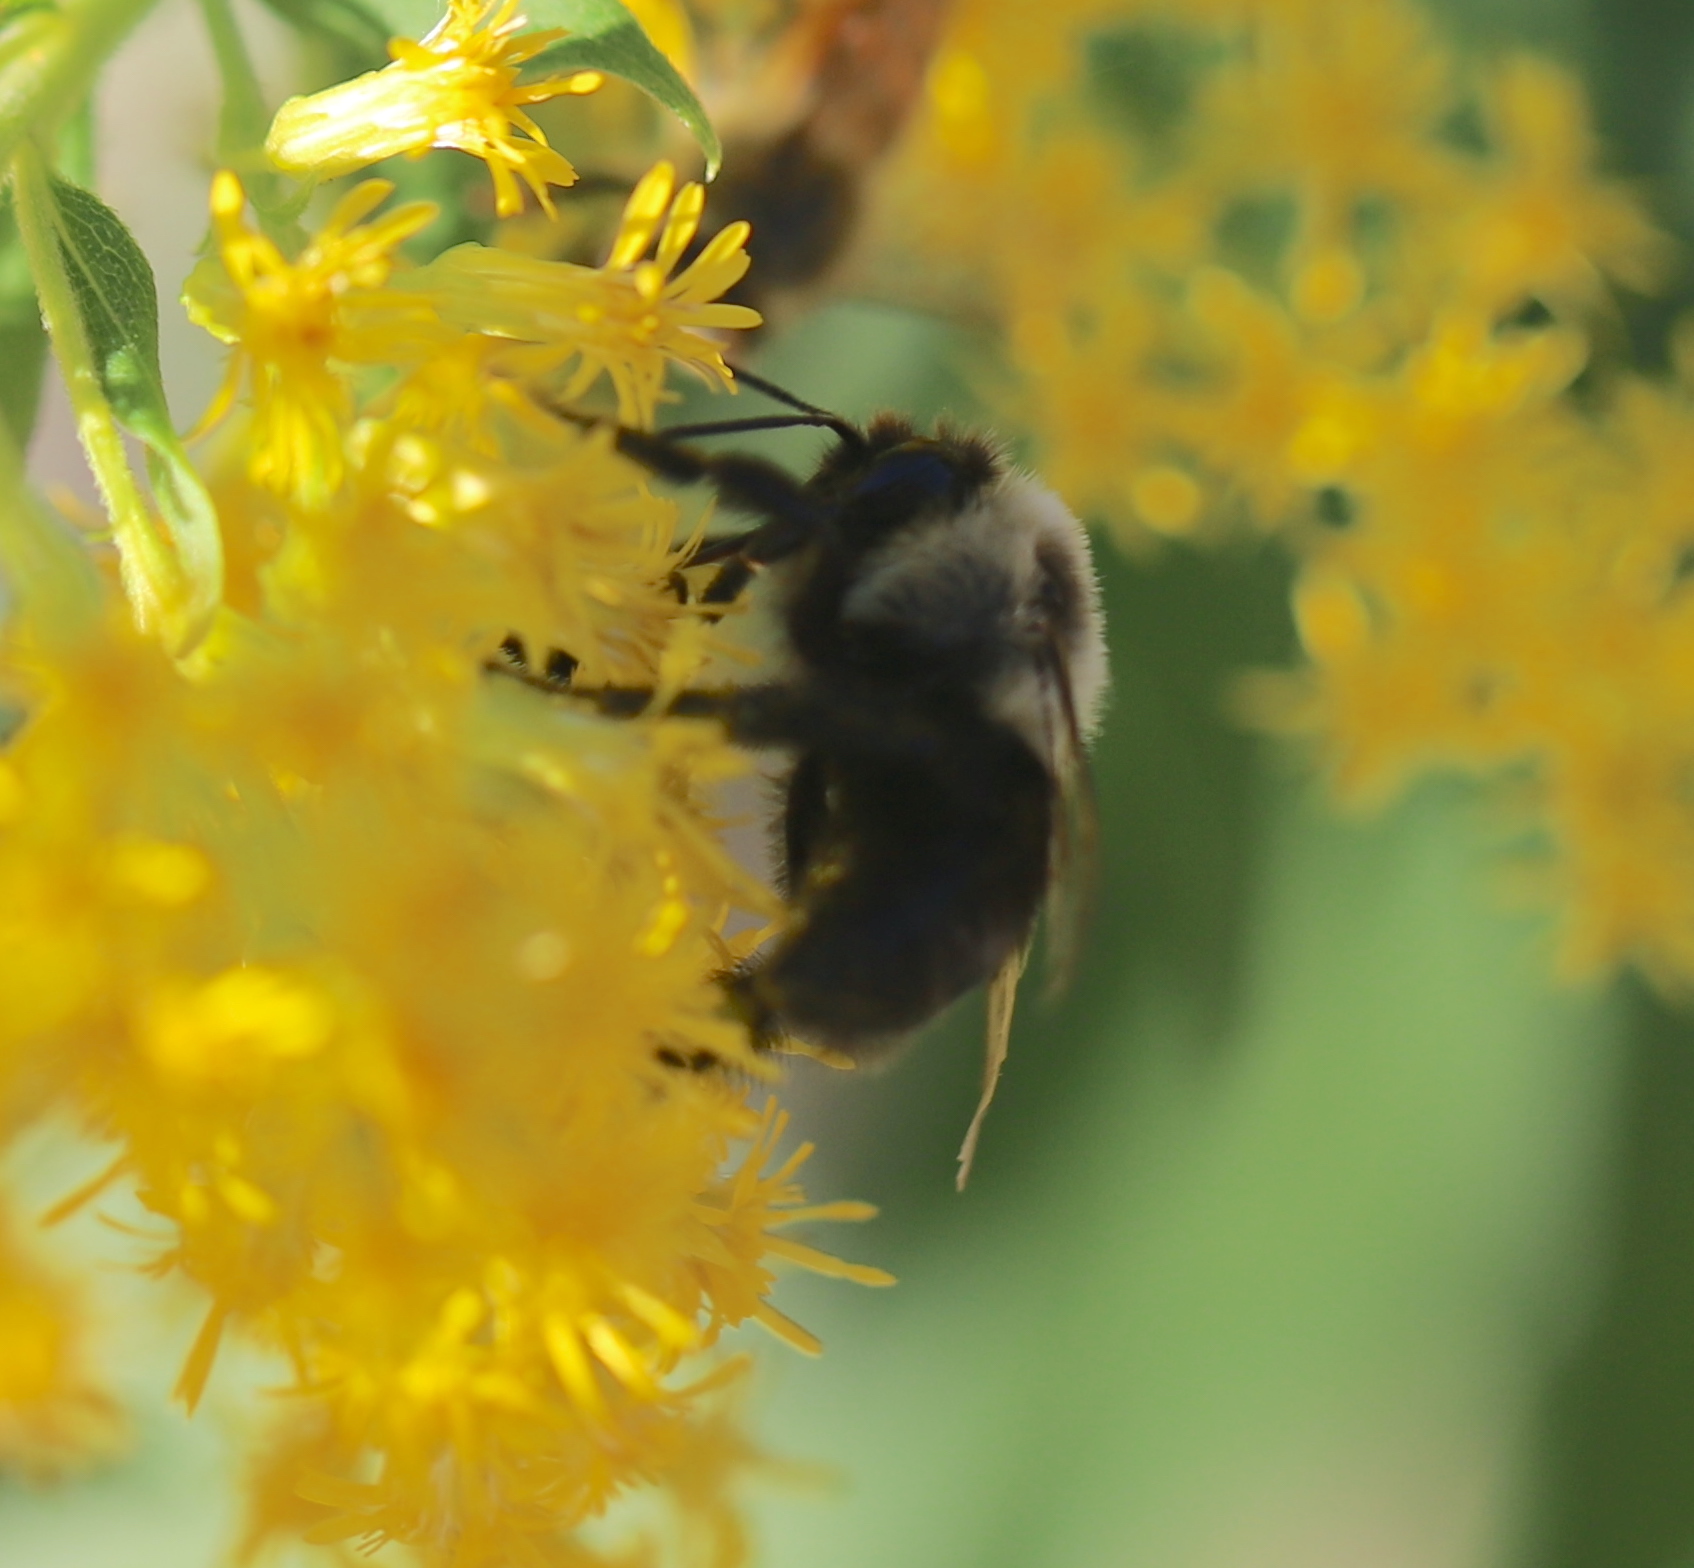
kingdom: Animalia
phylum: Arthropoda
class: Insecta
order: Hymenoptera
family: Apidae
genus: Bombus
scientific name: Bombus impatiens
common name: Common eastern bumble bee
